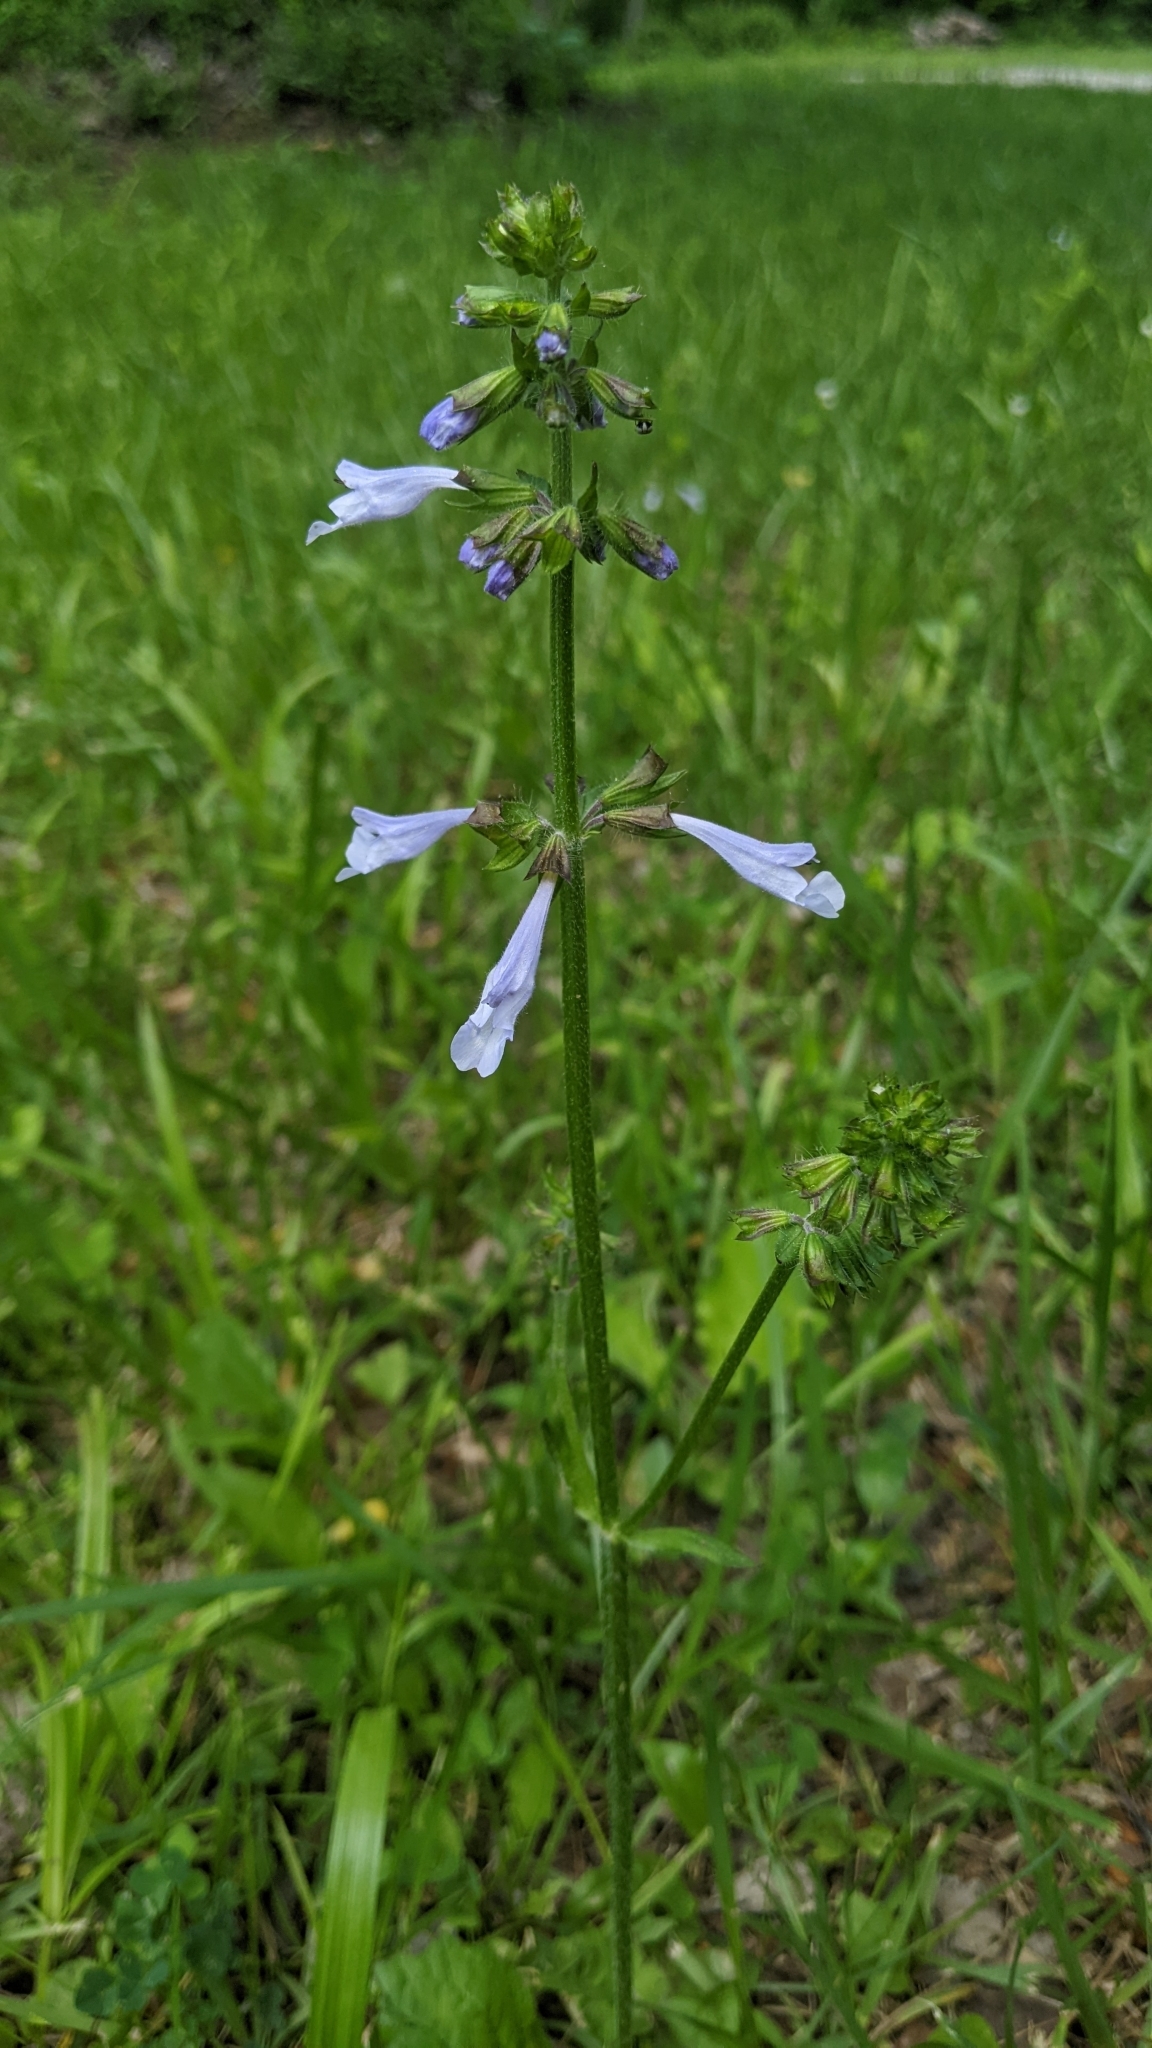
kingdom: Plantae
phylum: Tracheophyta
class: Magnoliopsida
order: Lamiales
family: Lamiaceae
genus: Salvia
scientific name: Salvia lyrata
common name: Cancerweed
